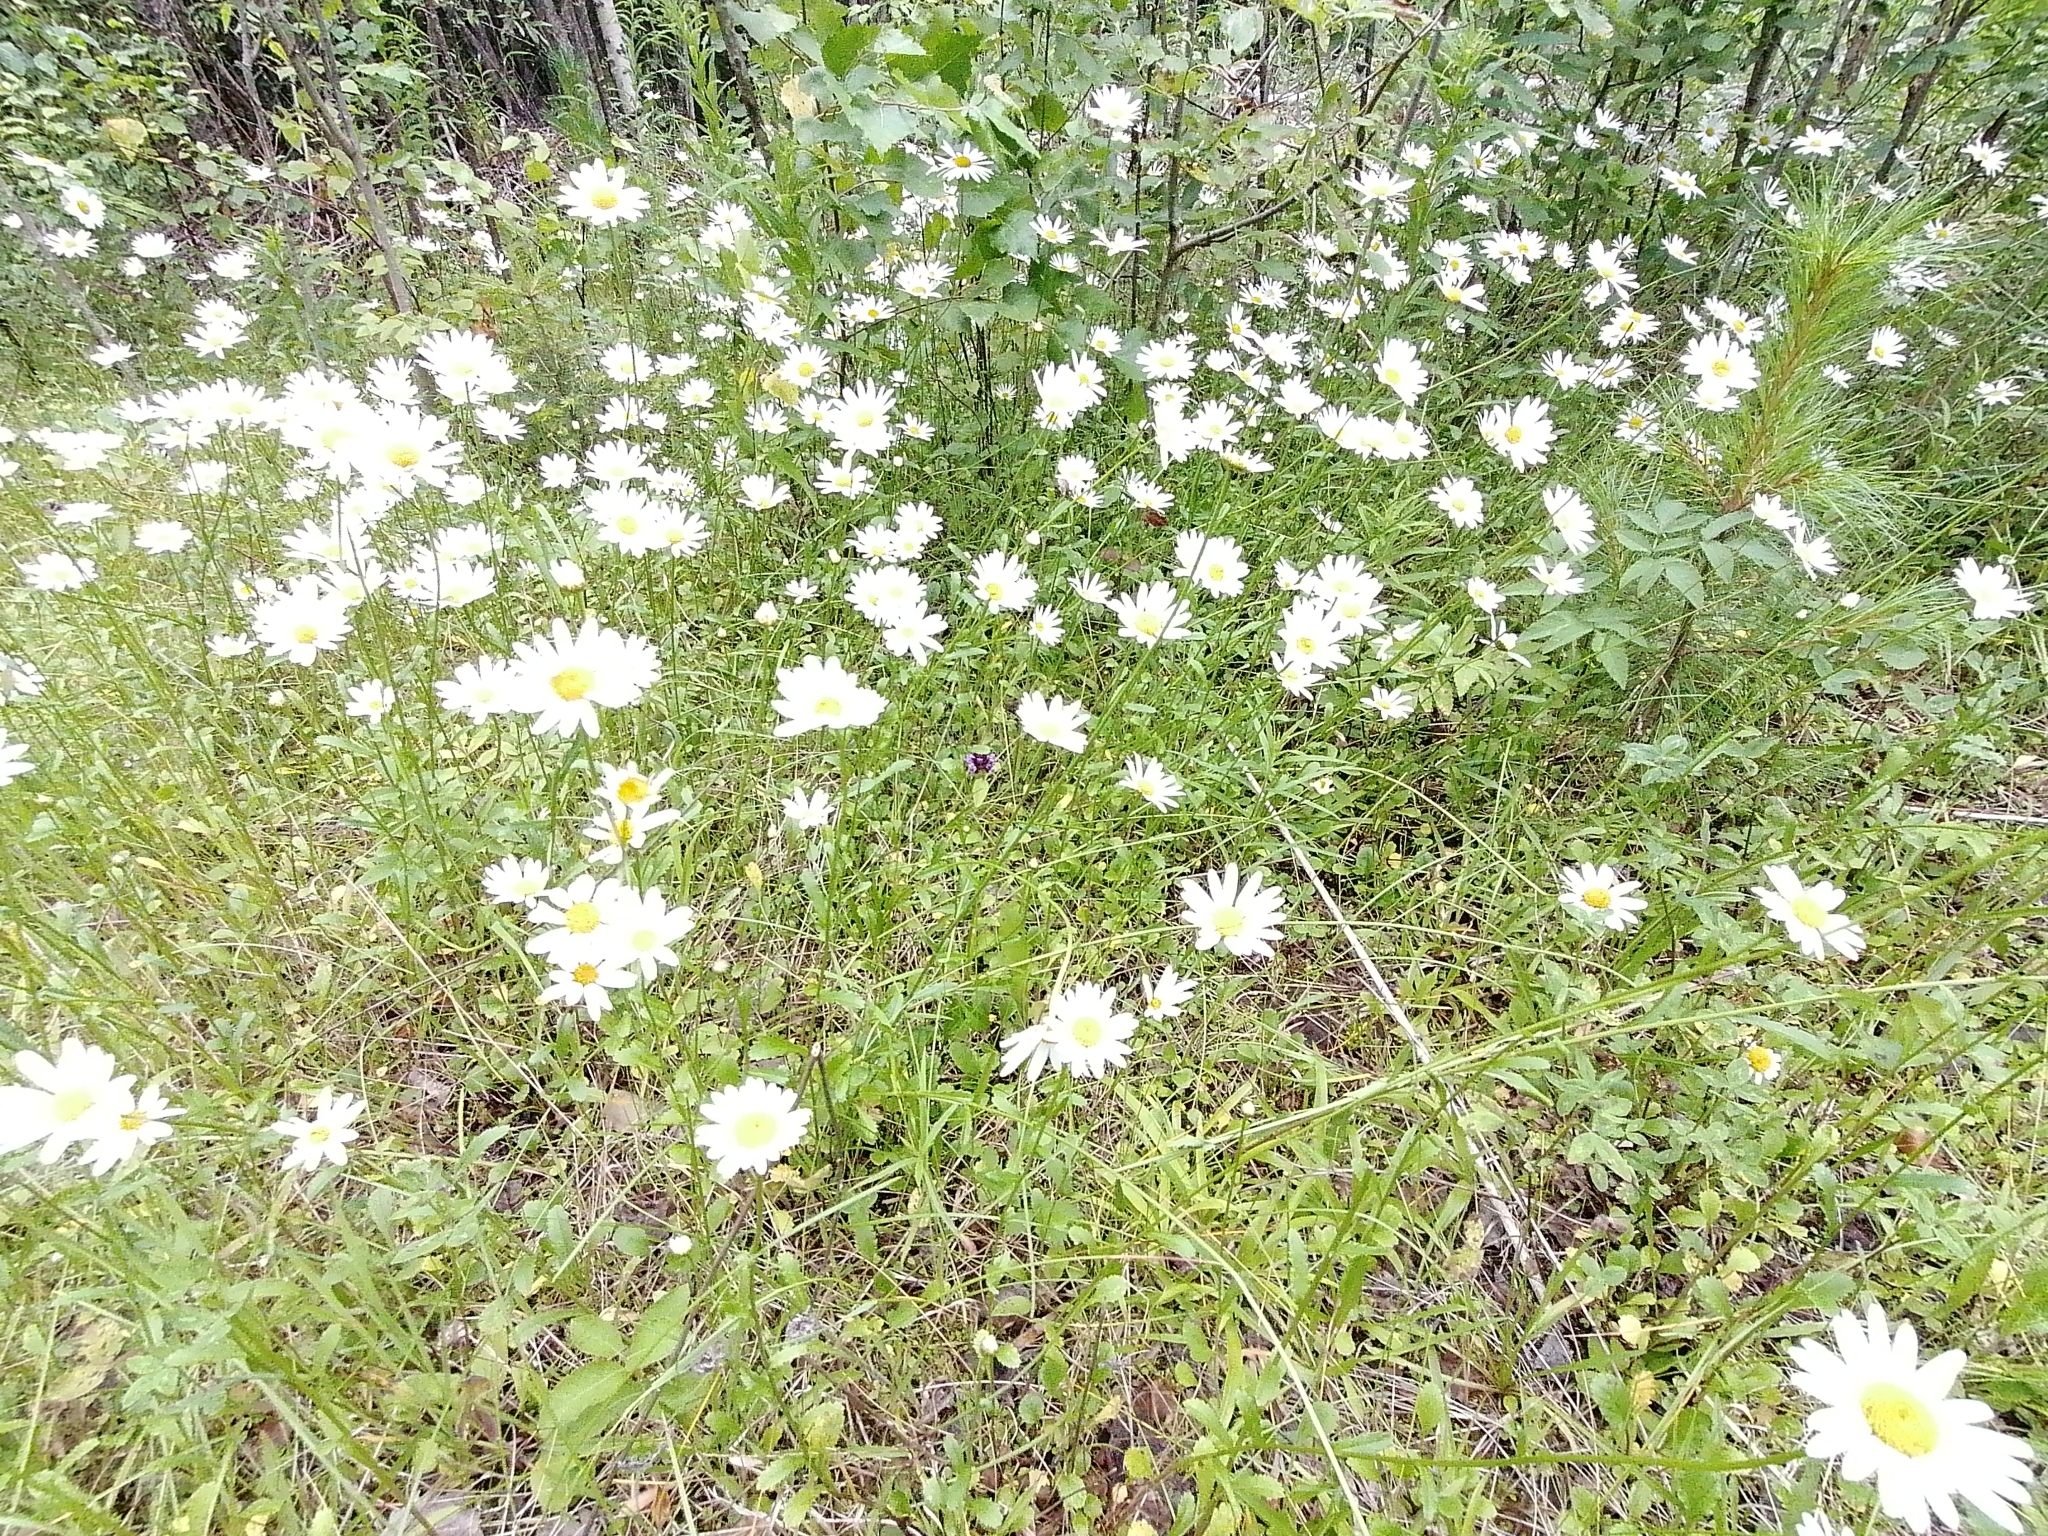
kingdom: Plantae
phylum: Tracheophyta
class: Magnoliopsida
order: Asterales
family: Asteraceae
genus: Leucanthemum
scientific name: Leucanthemum ircutianum
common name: Daisy
